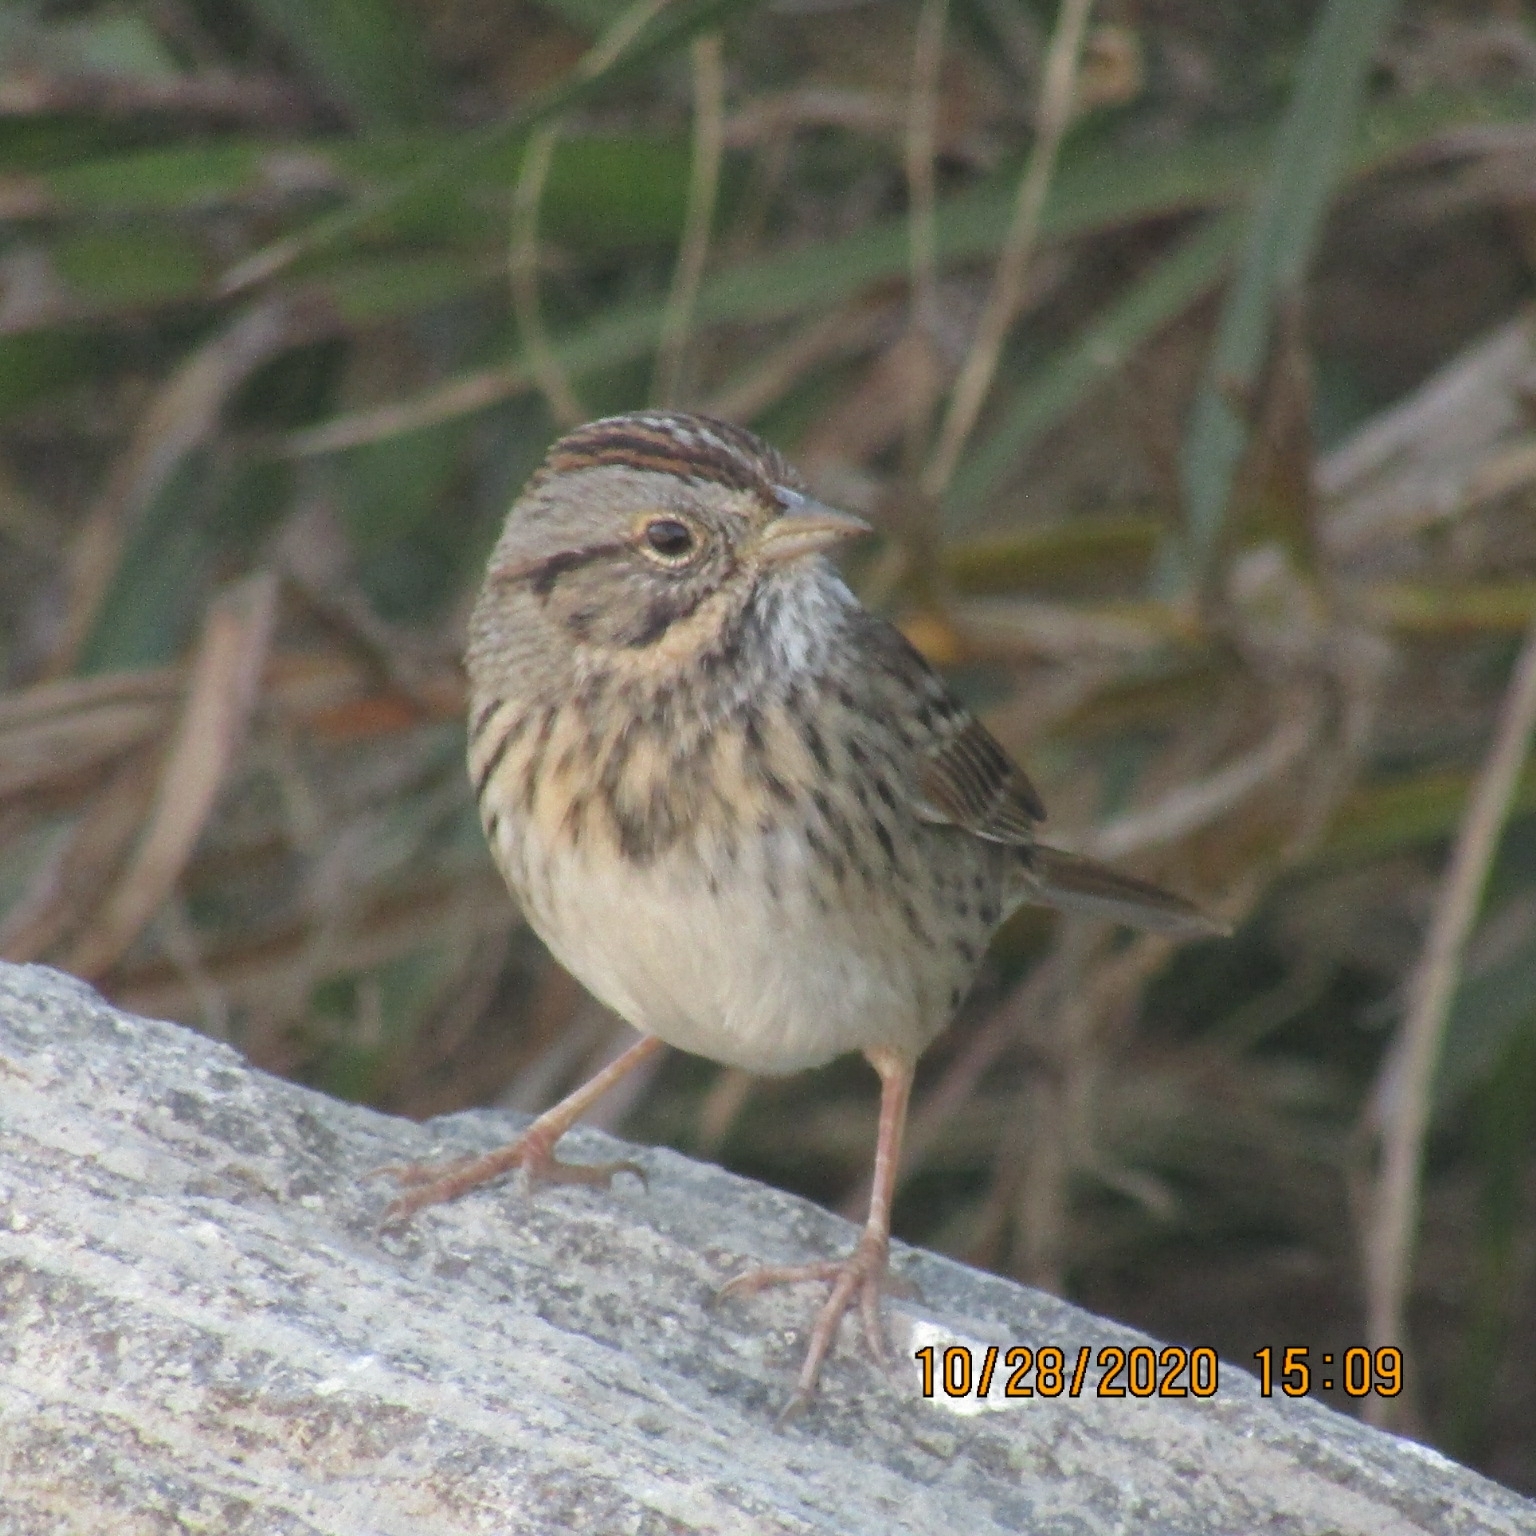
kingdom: Animalia
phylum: Chordata
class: Aves
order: Passeriformes
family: Passerellidae
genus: Melospiza
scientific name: Melospiza lincolnii
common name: Lincoln's sparrow
